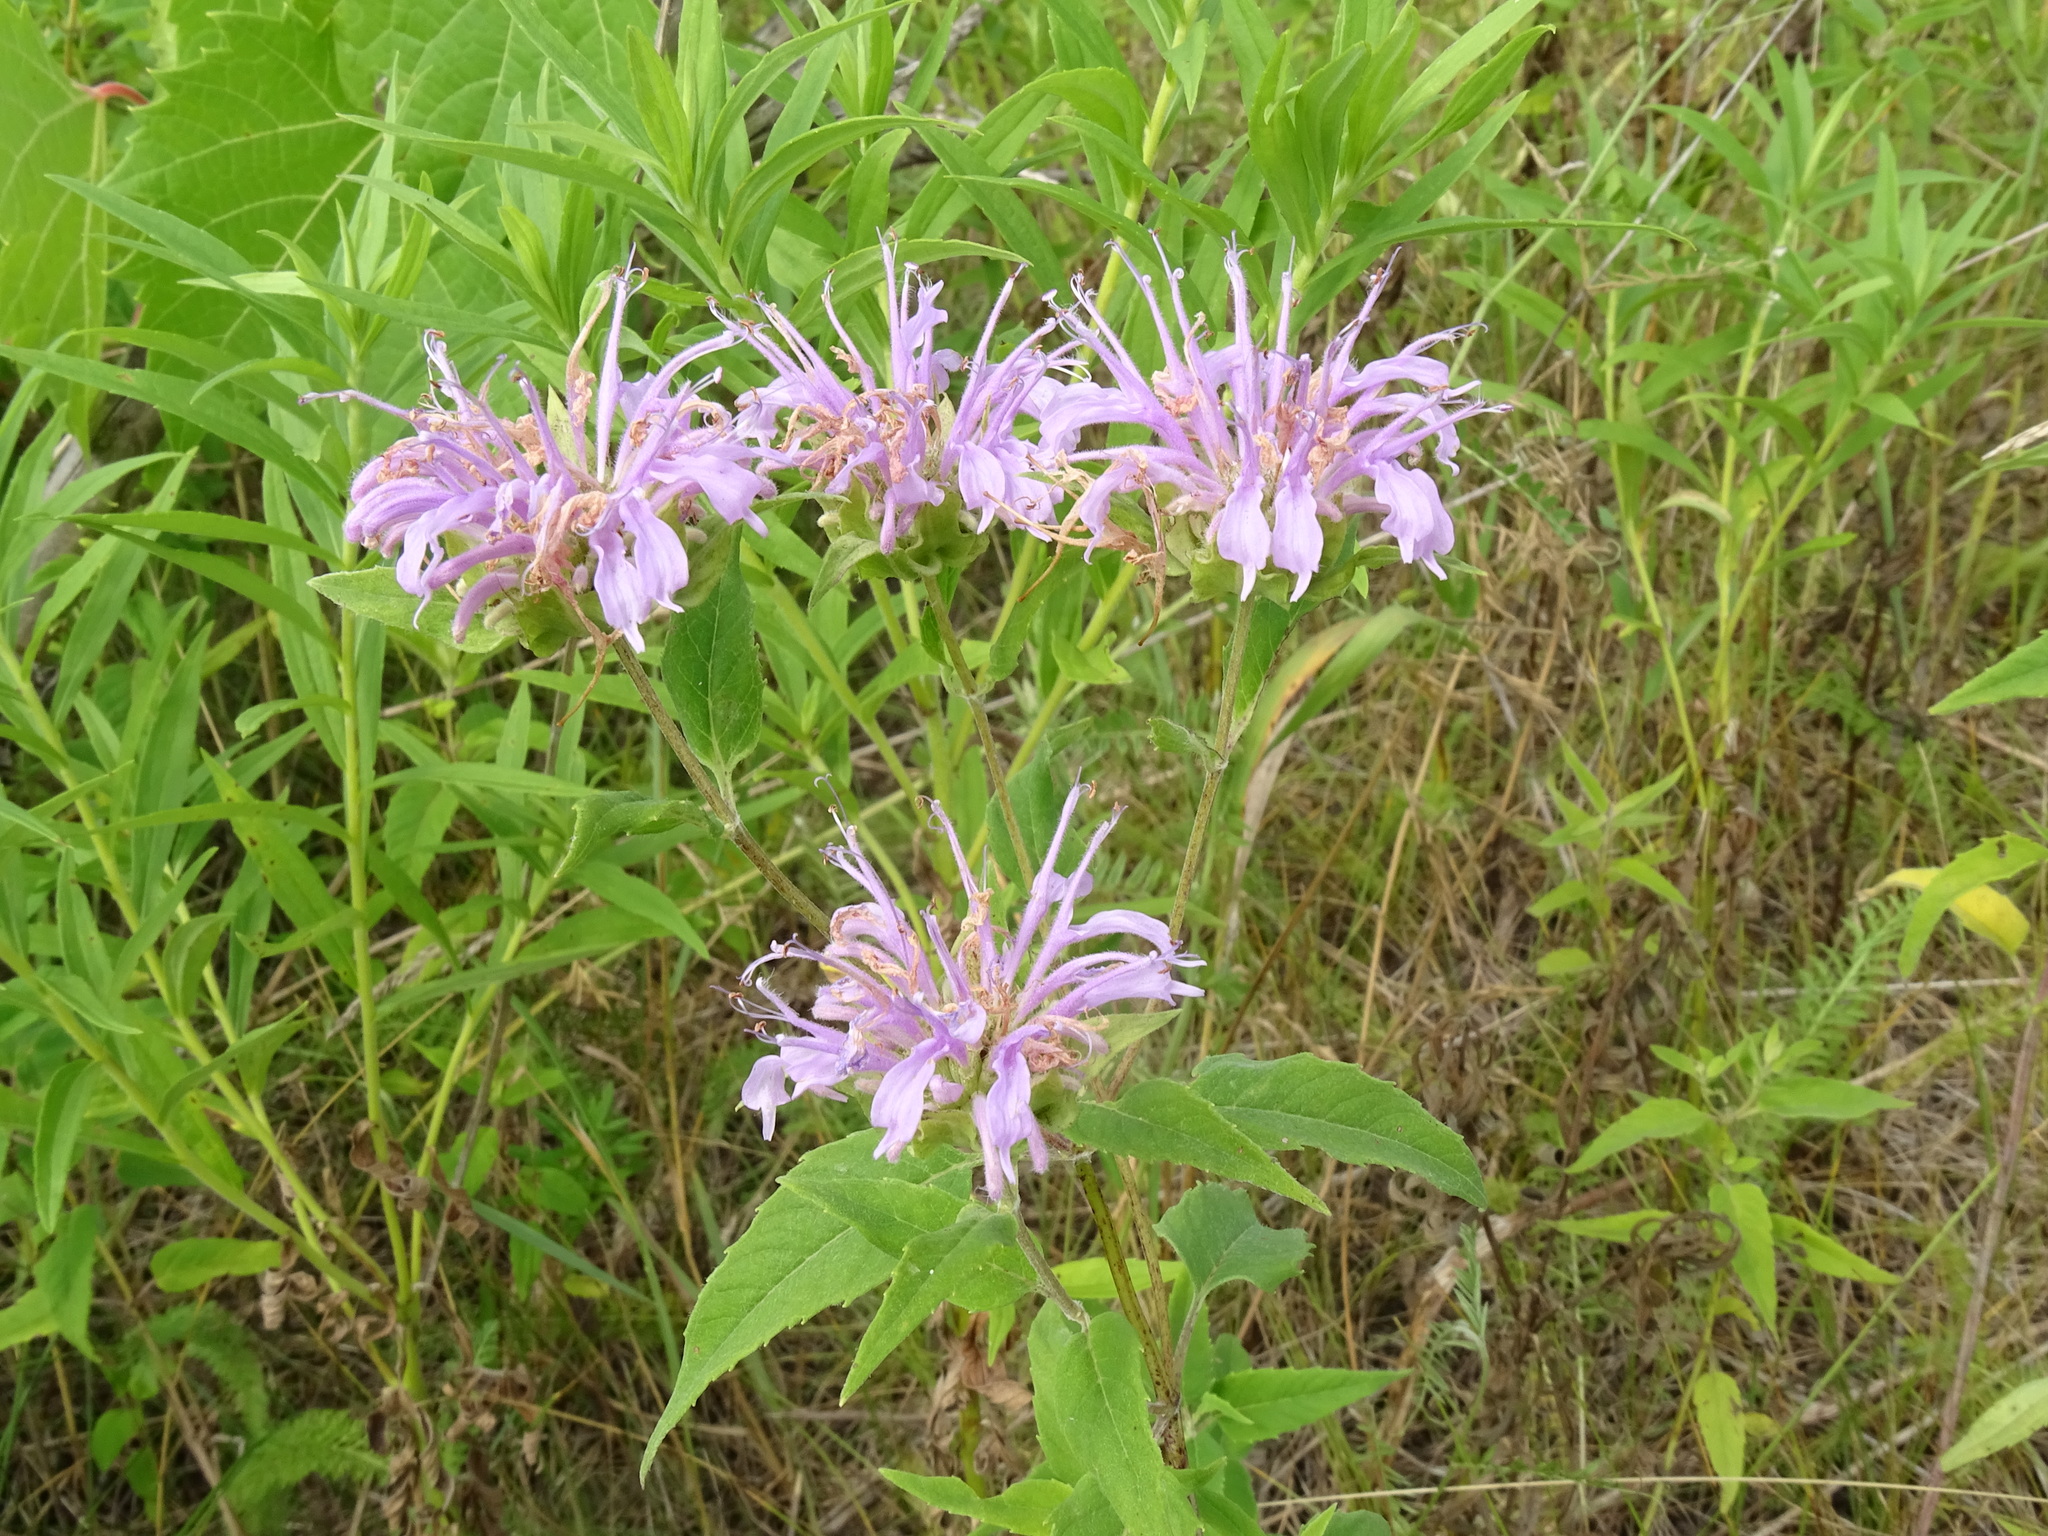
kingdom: Plantae
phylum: Tracheophyta
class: Magnoliopsida
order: Lamiales
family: Lamiaceae
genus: Monarda
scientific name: Monarda fistulosa
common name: Purple beebalm
